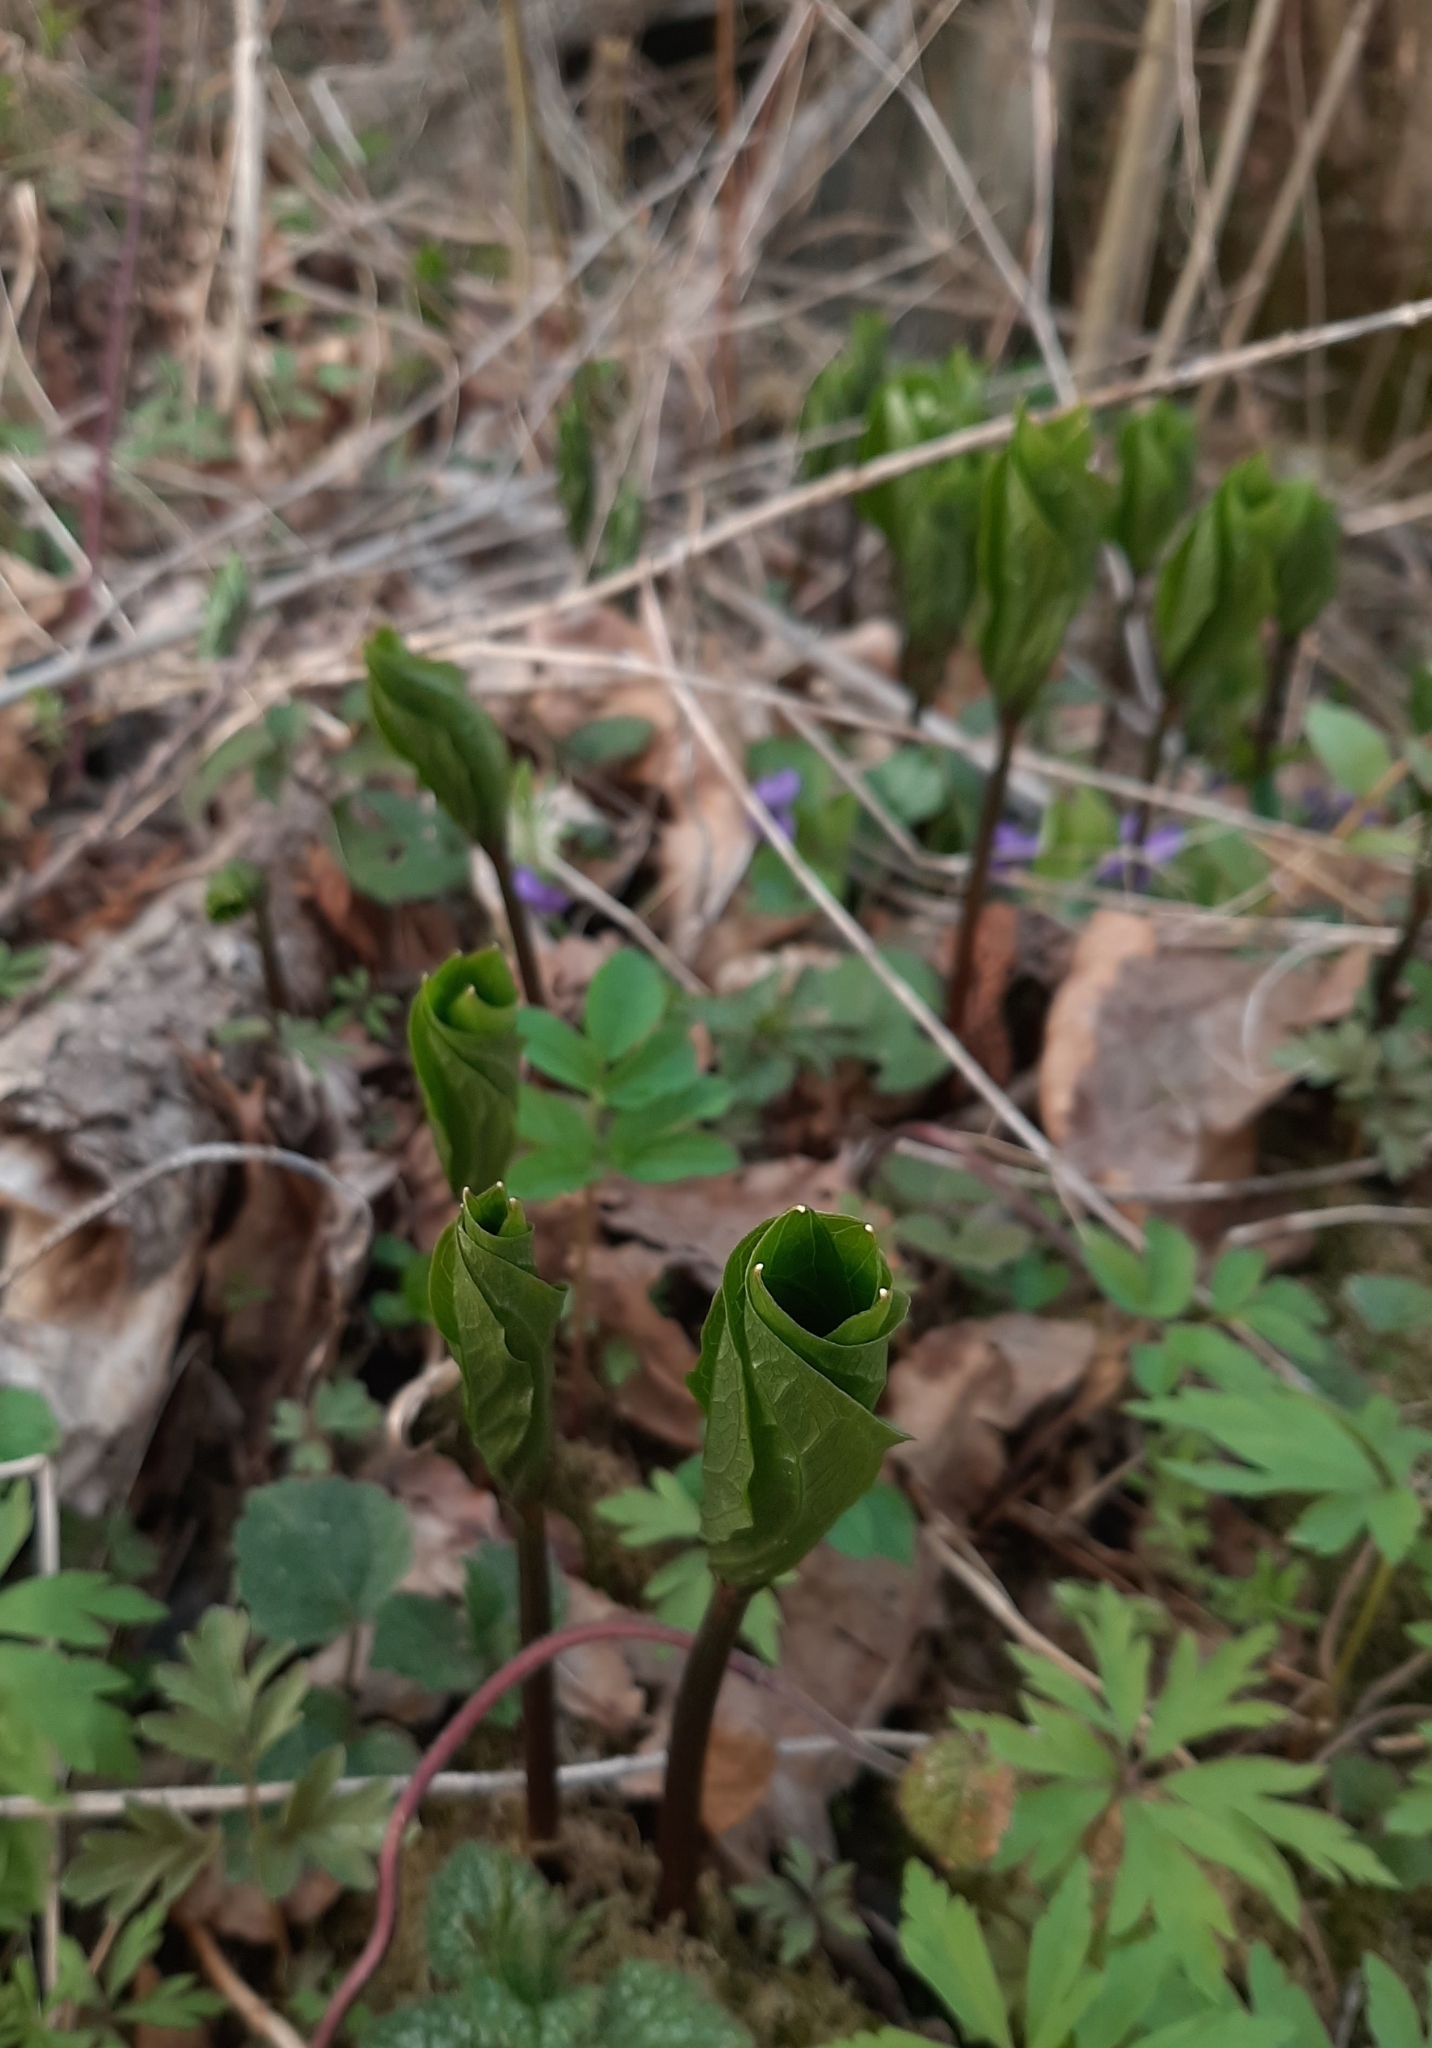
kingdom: Plantae
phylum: Tracheophyta
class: Liliopsida
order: Liliales
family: Melanthiaceae
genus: Paris
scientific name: Paris quadrifolia
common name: Herb-paris
